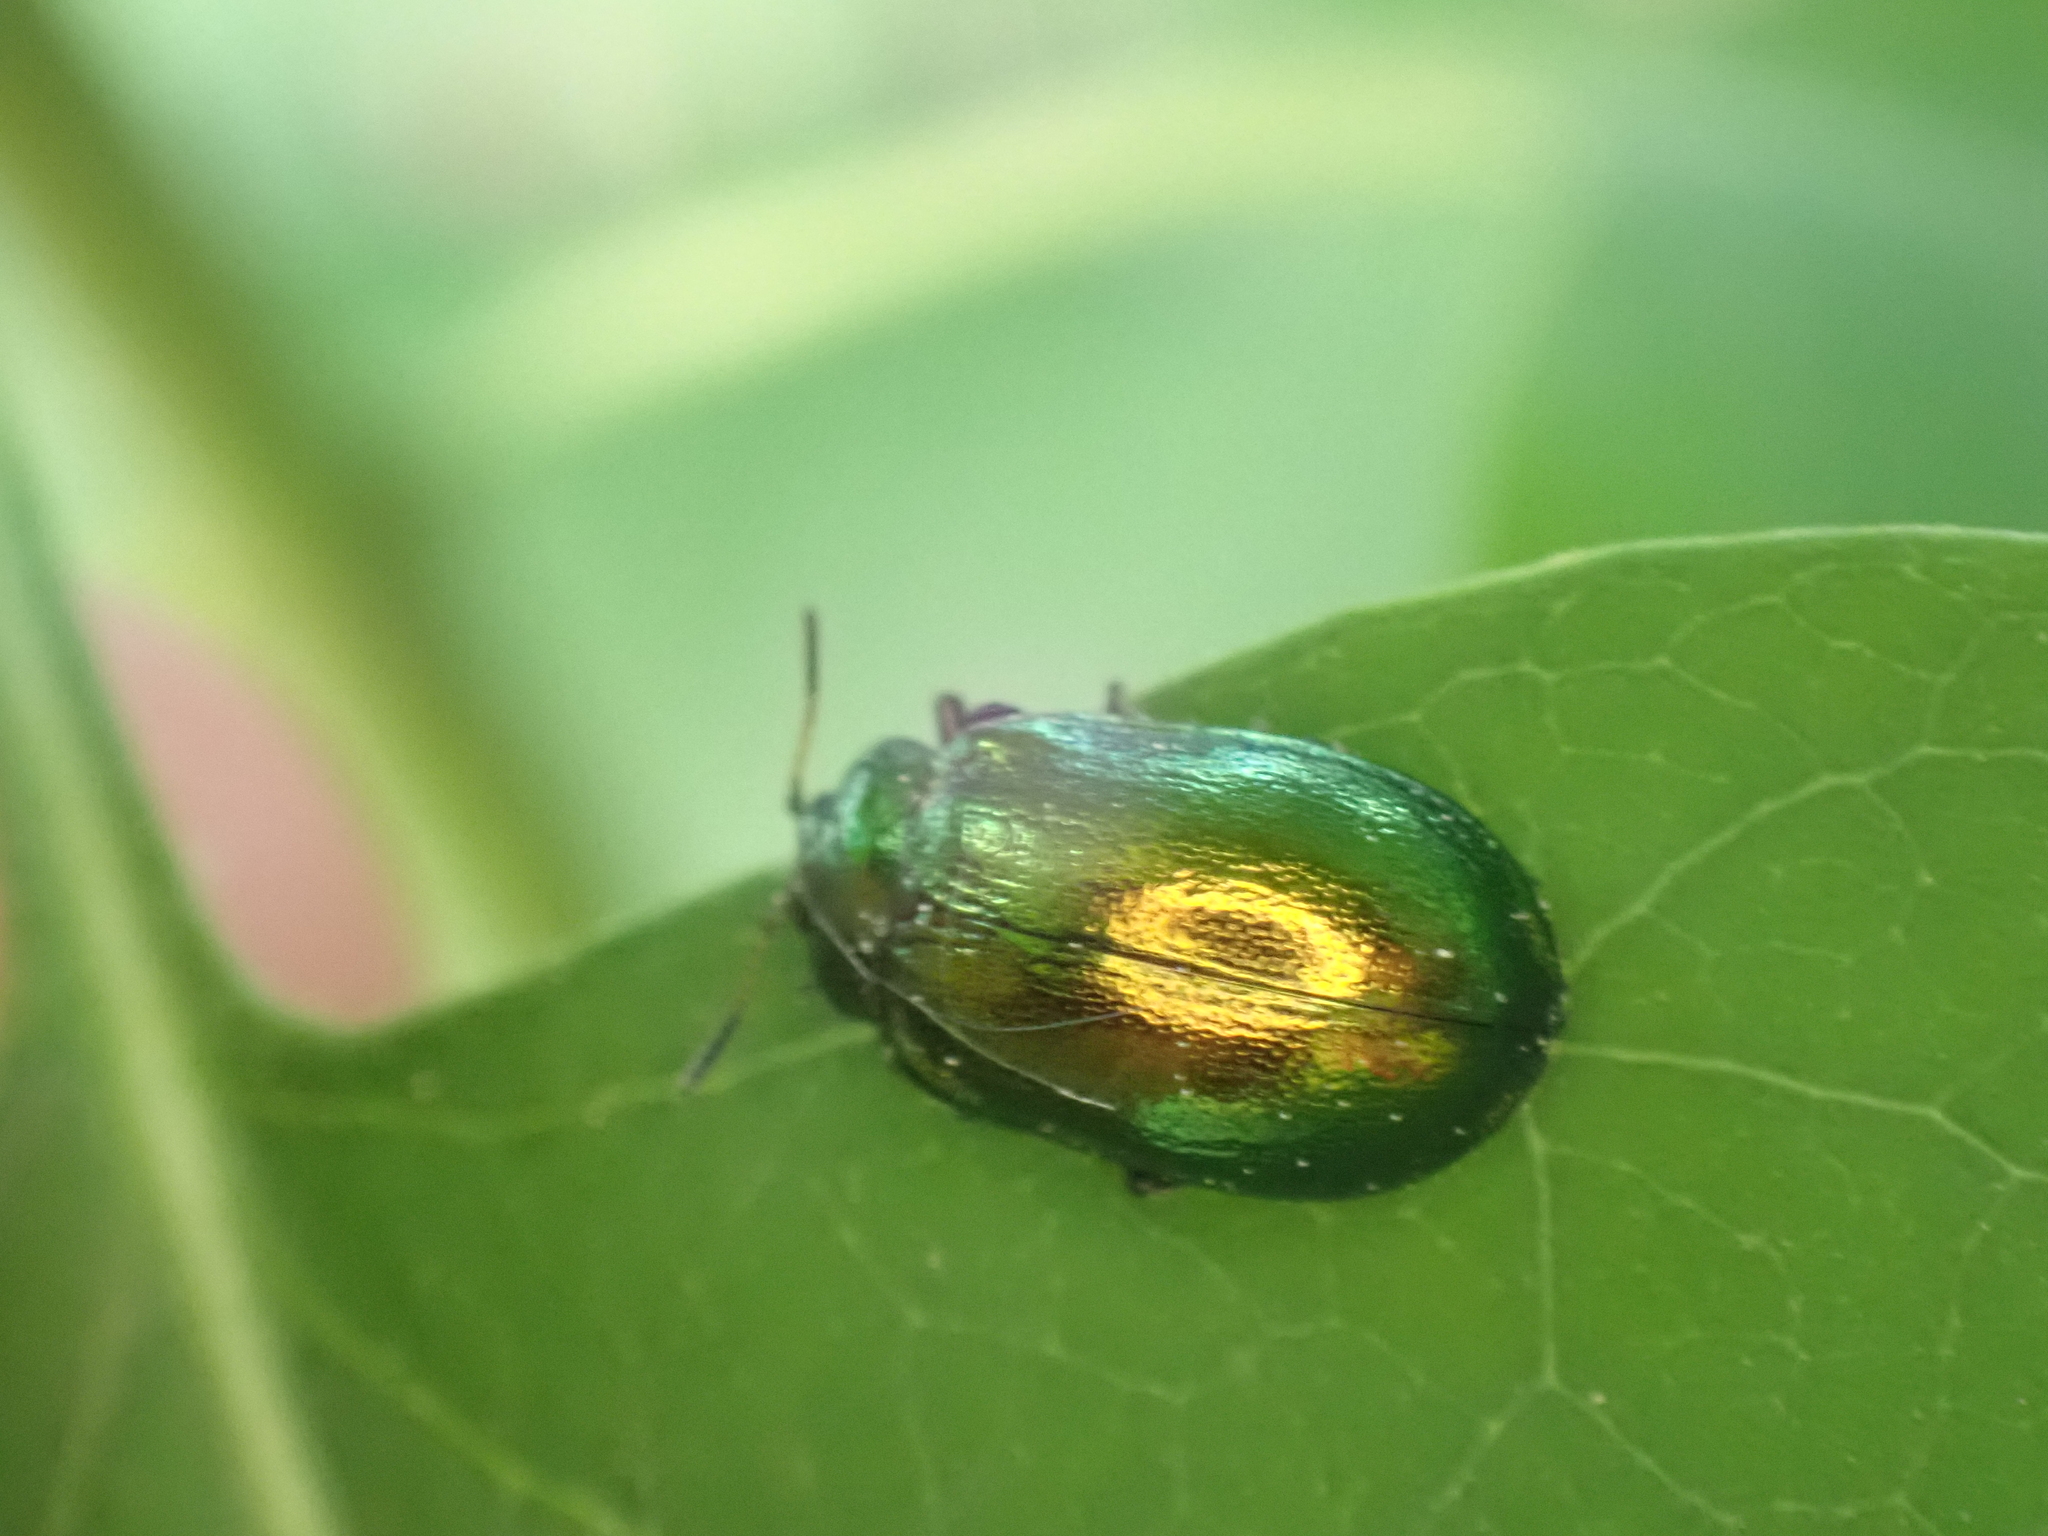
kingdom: Animalia
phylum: Arthropoda
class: Insecta
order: Coleoptera
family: Chrysomelidae
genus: Plagiosterna
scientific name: Plagiosterna aenea
